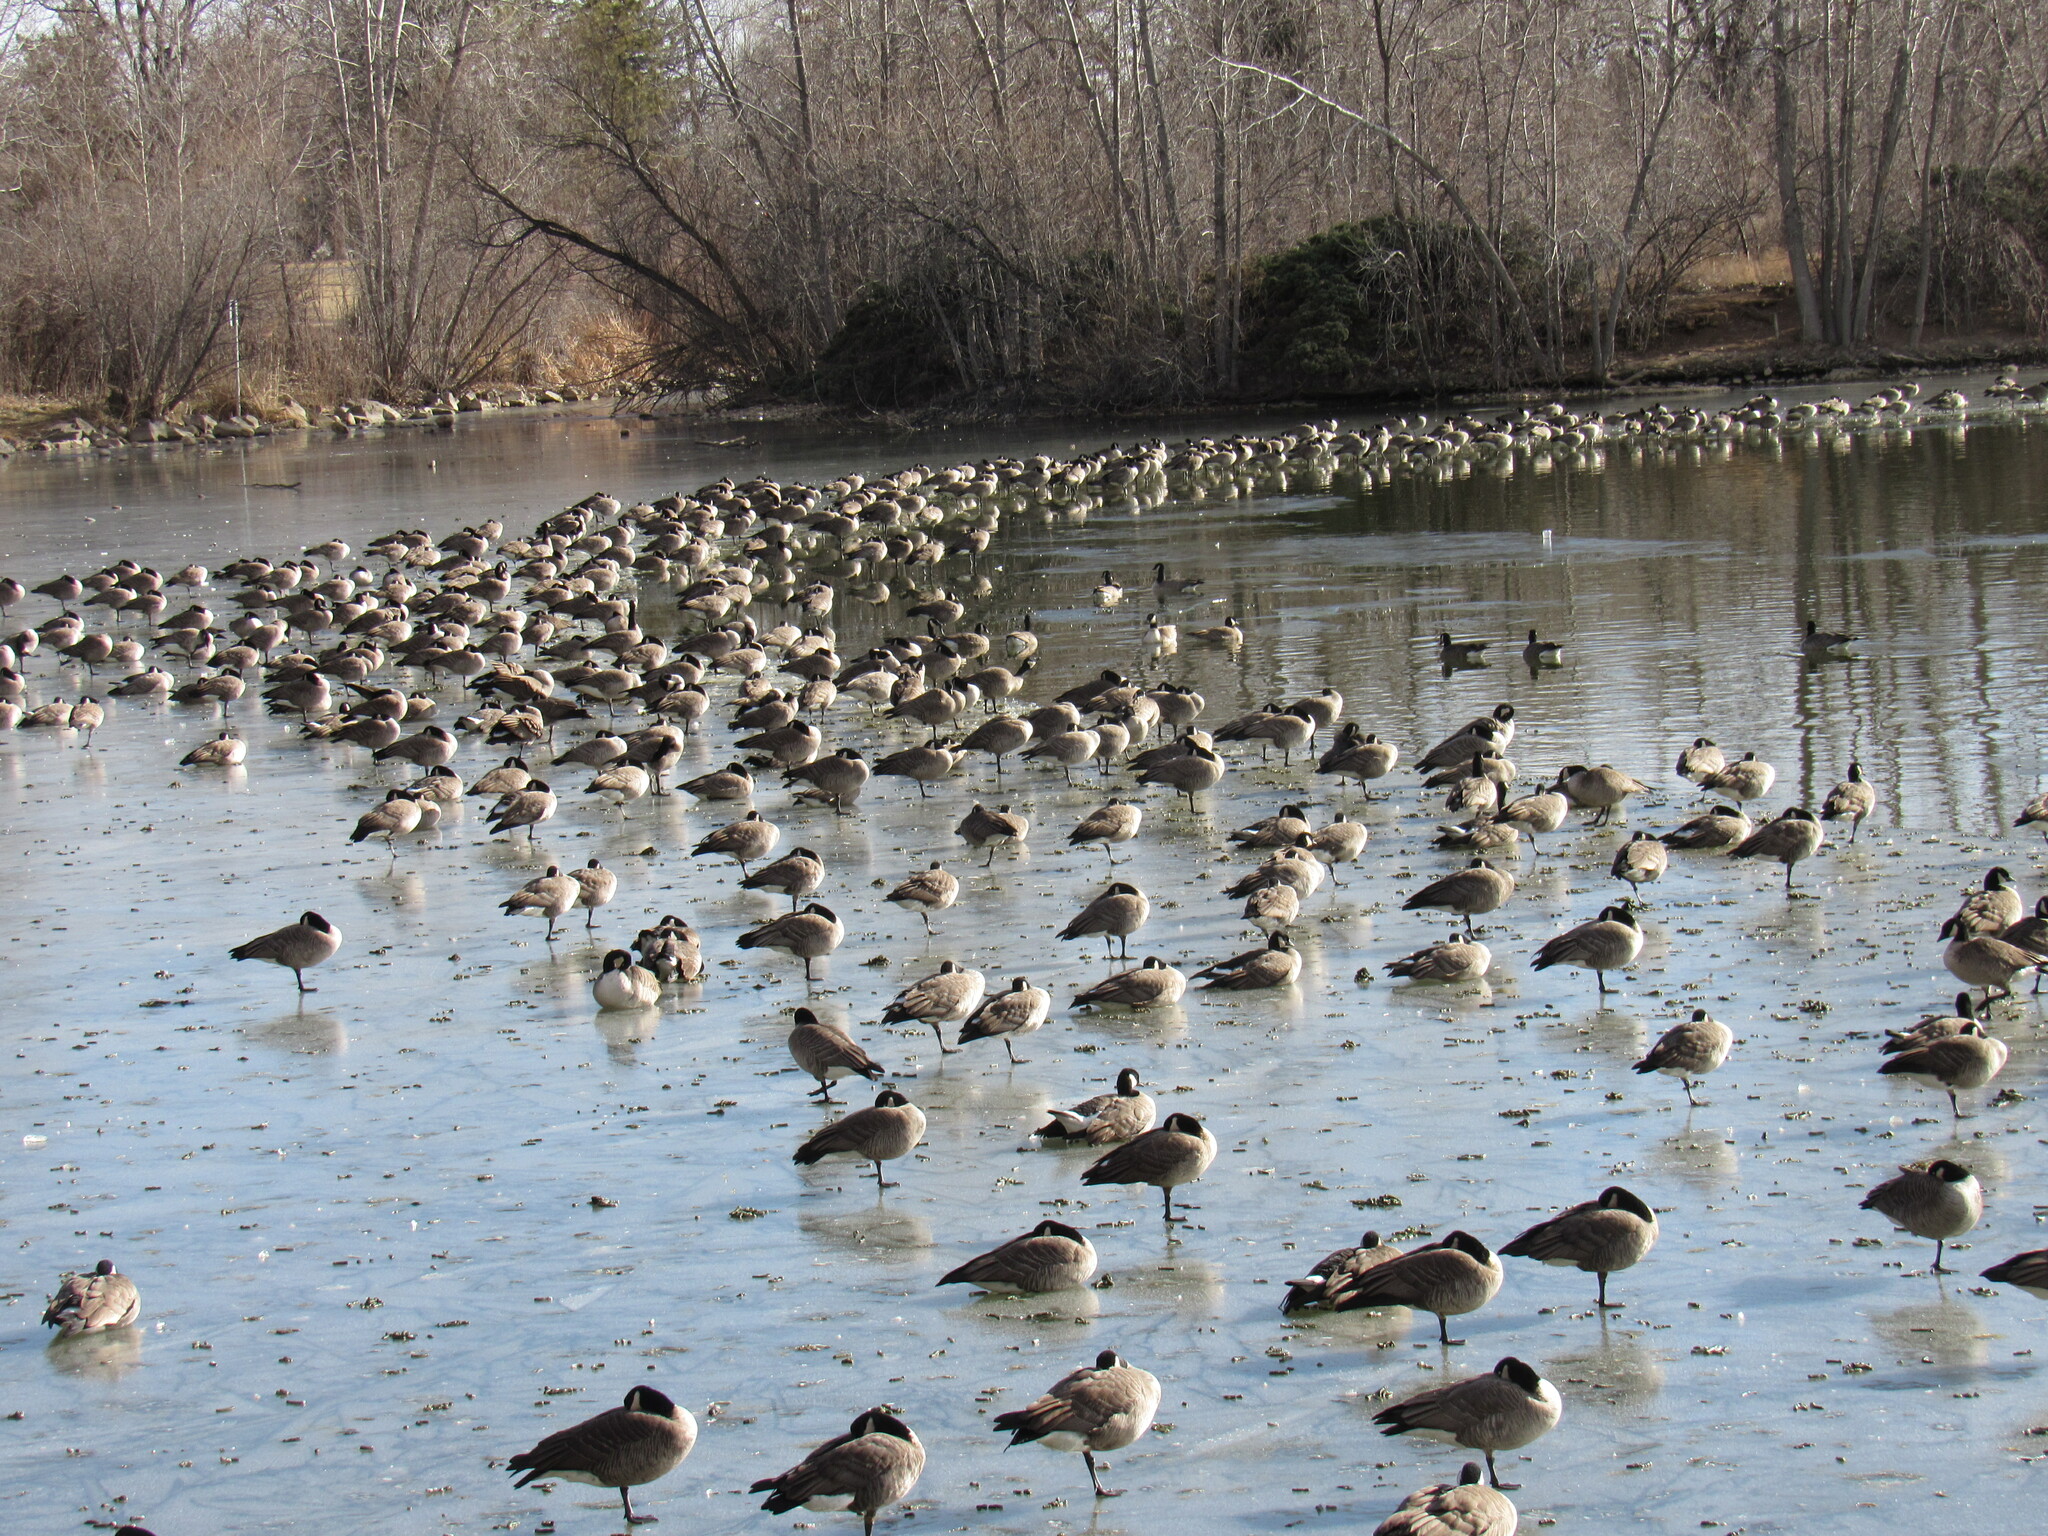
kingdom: Animalia
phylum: Chordata
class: Aves
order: Anseriformes
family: Anatidae
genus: Branta
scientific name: Branta canadensis
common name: Canada goose
